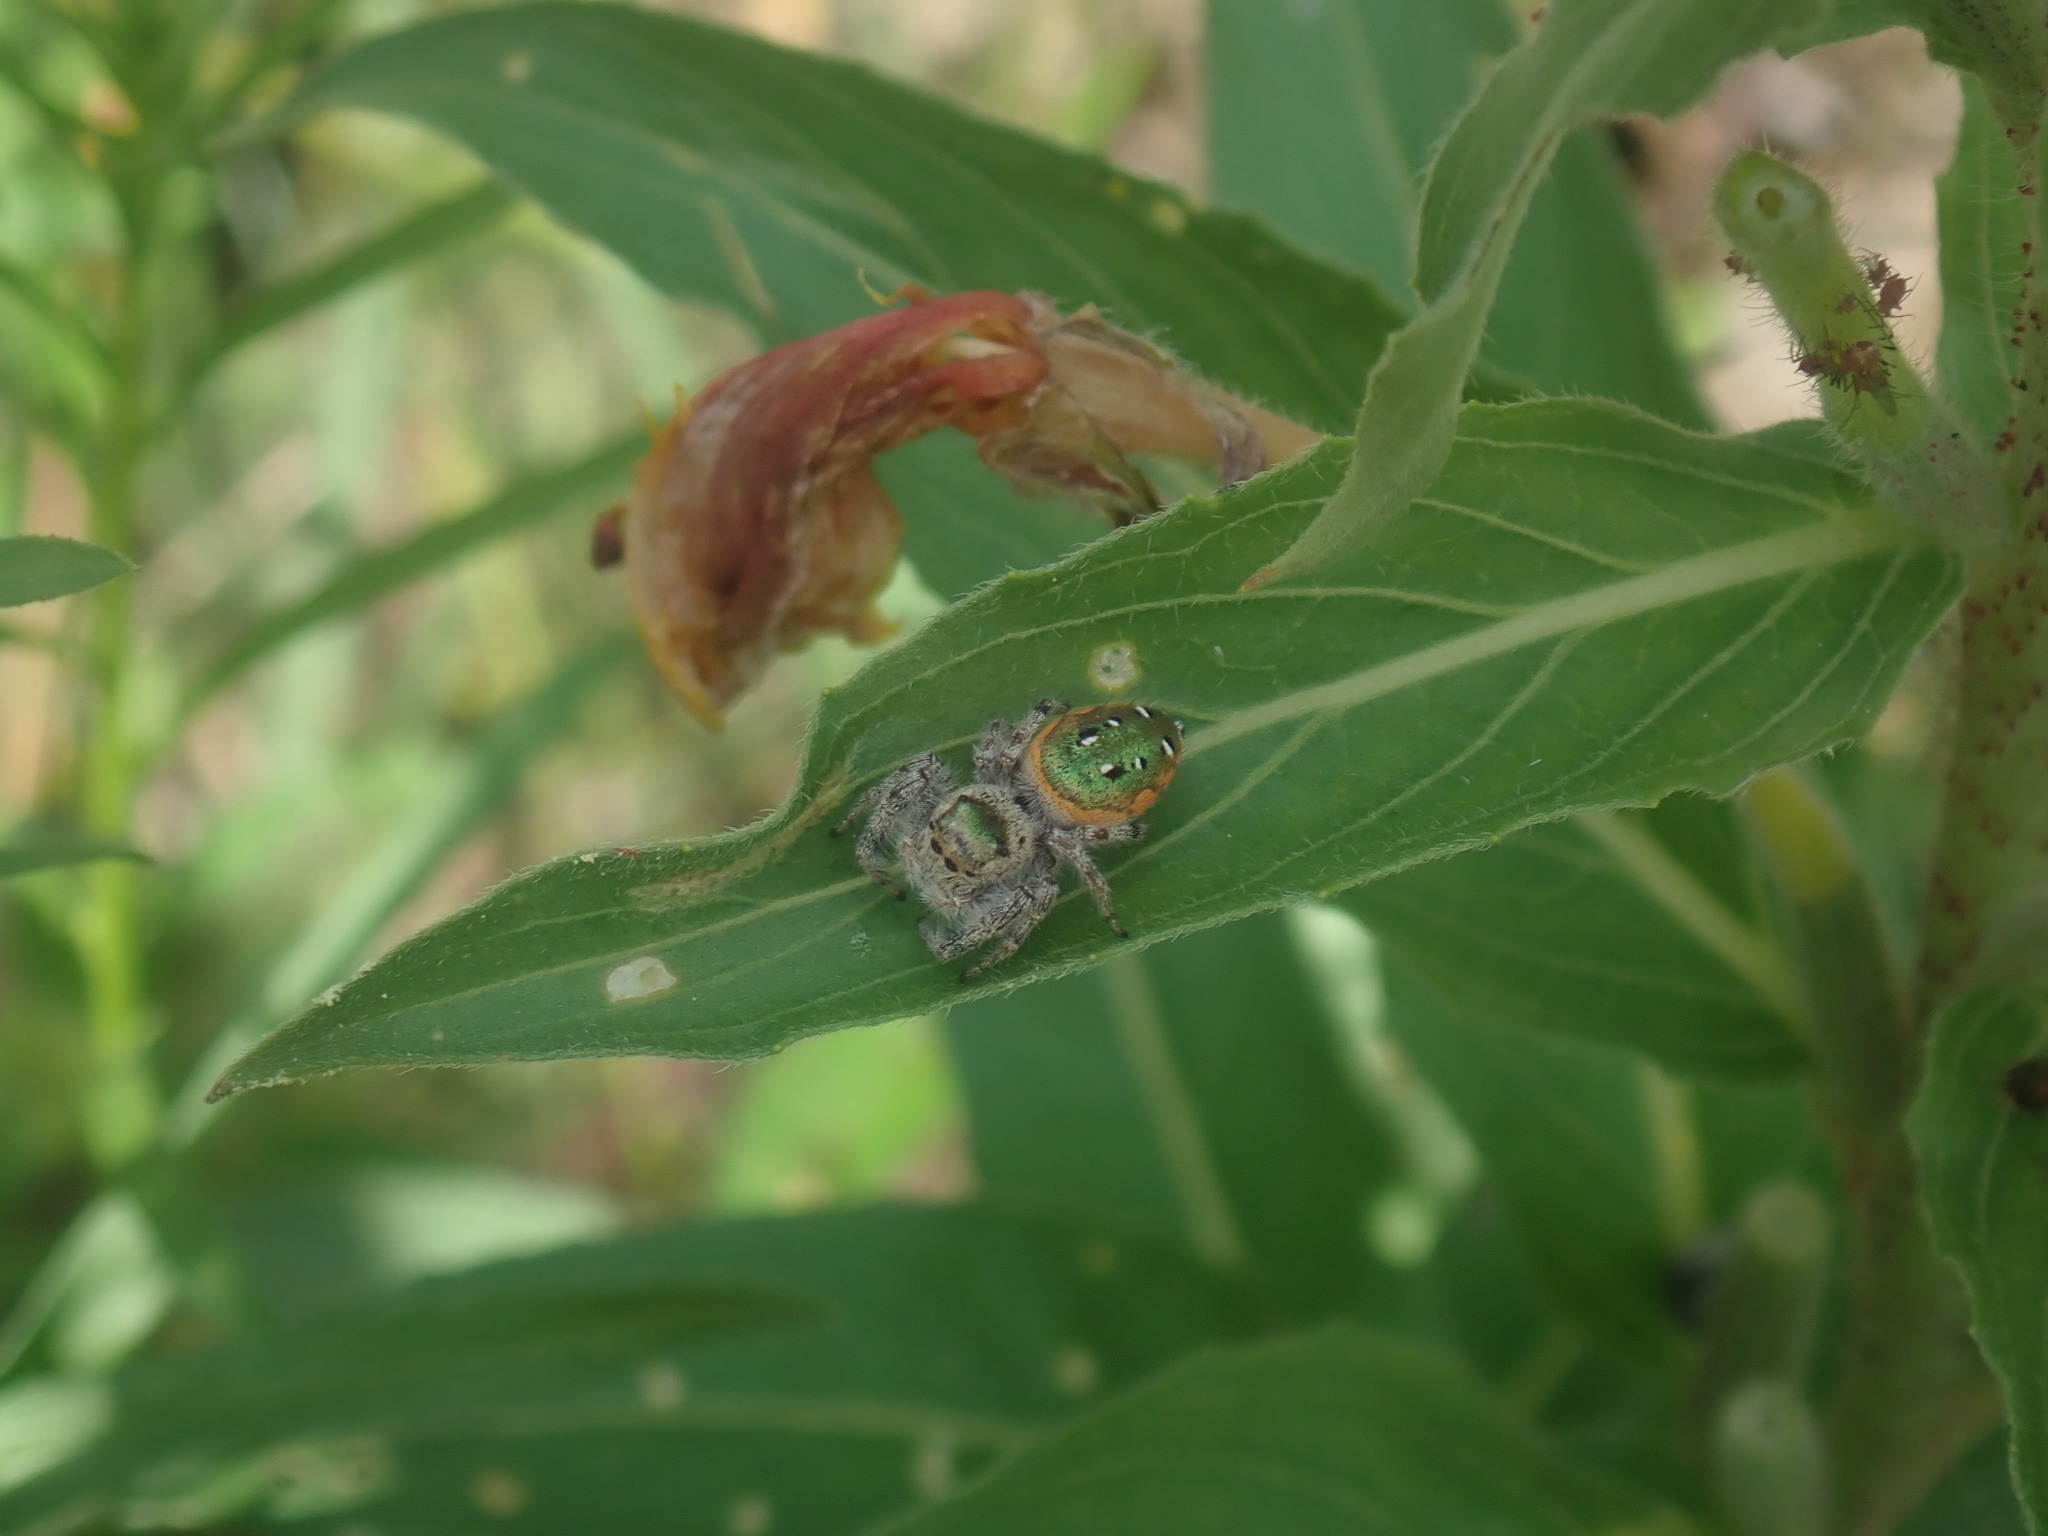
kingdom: Animalia
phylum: Arthropoda
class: Arachnida
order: Araneae
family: Salticidae
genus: Paraphidippus
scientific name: Paraphidippus aurantius
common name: Jumping spiders
